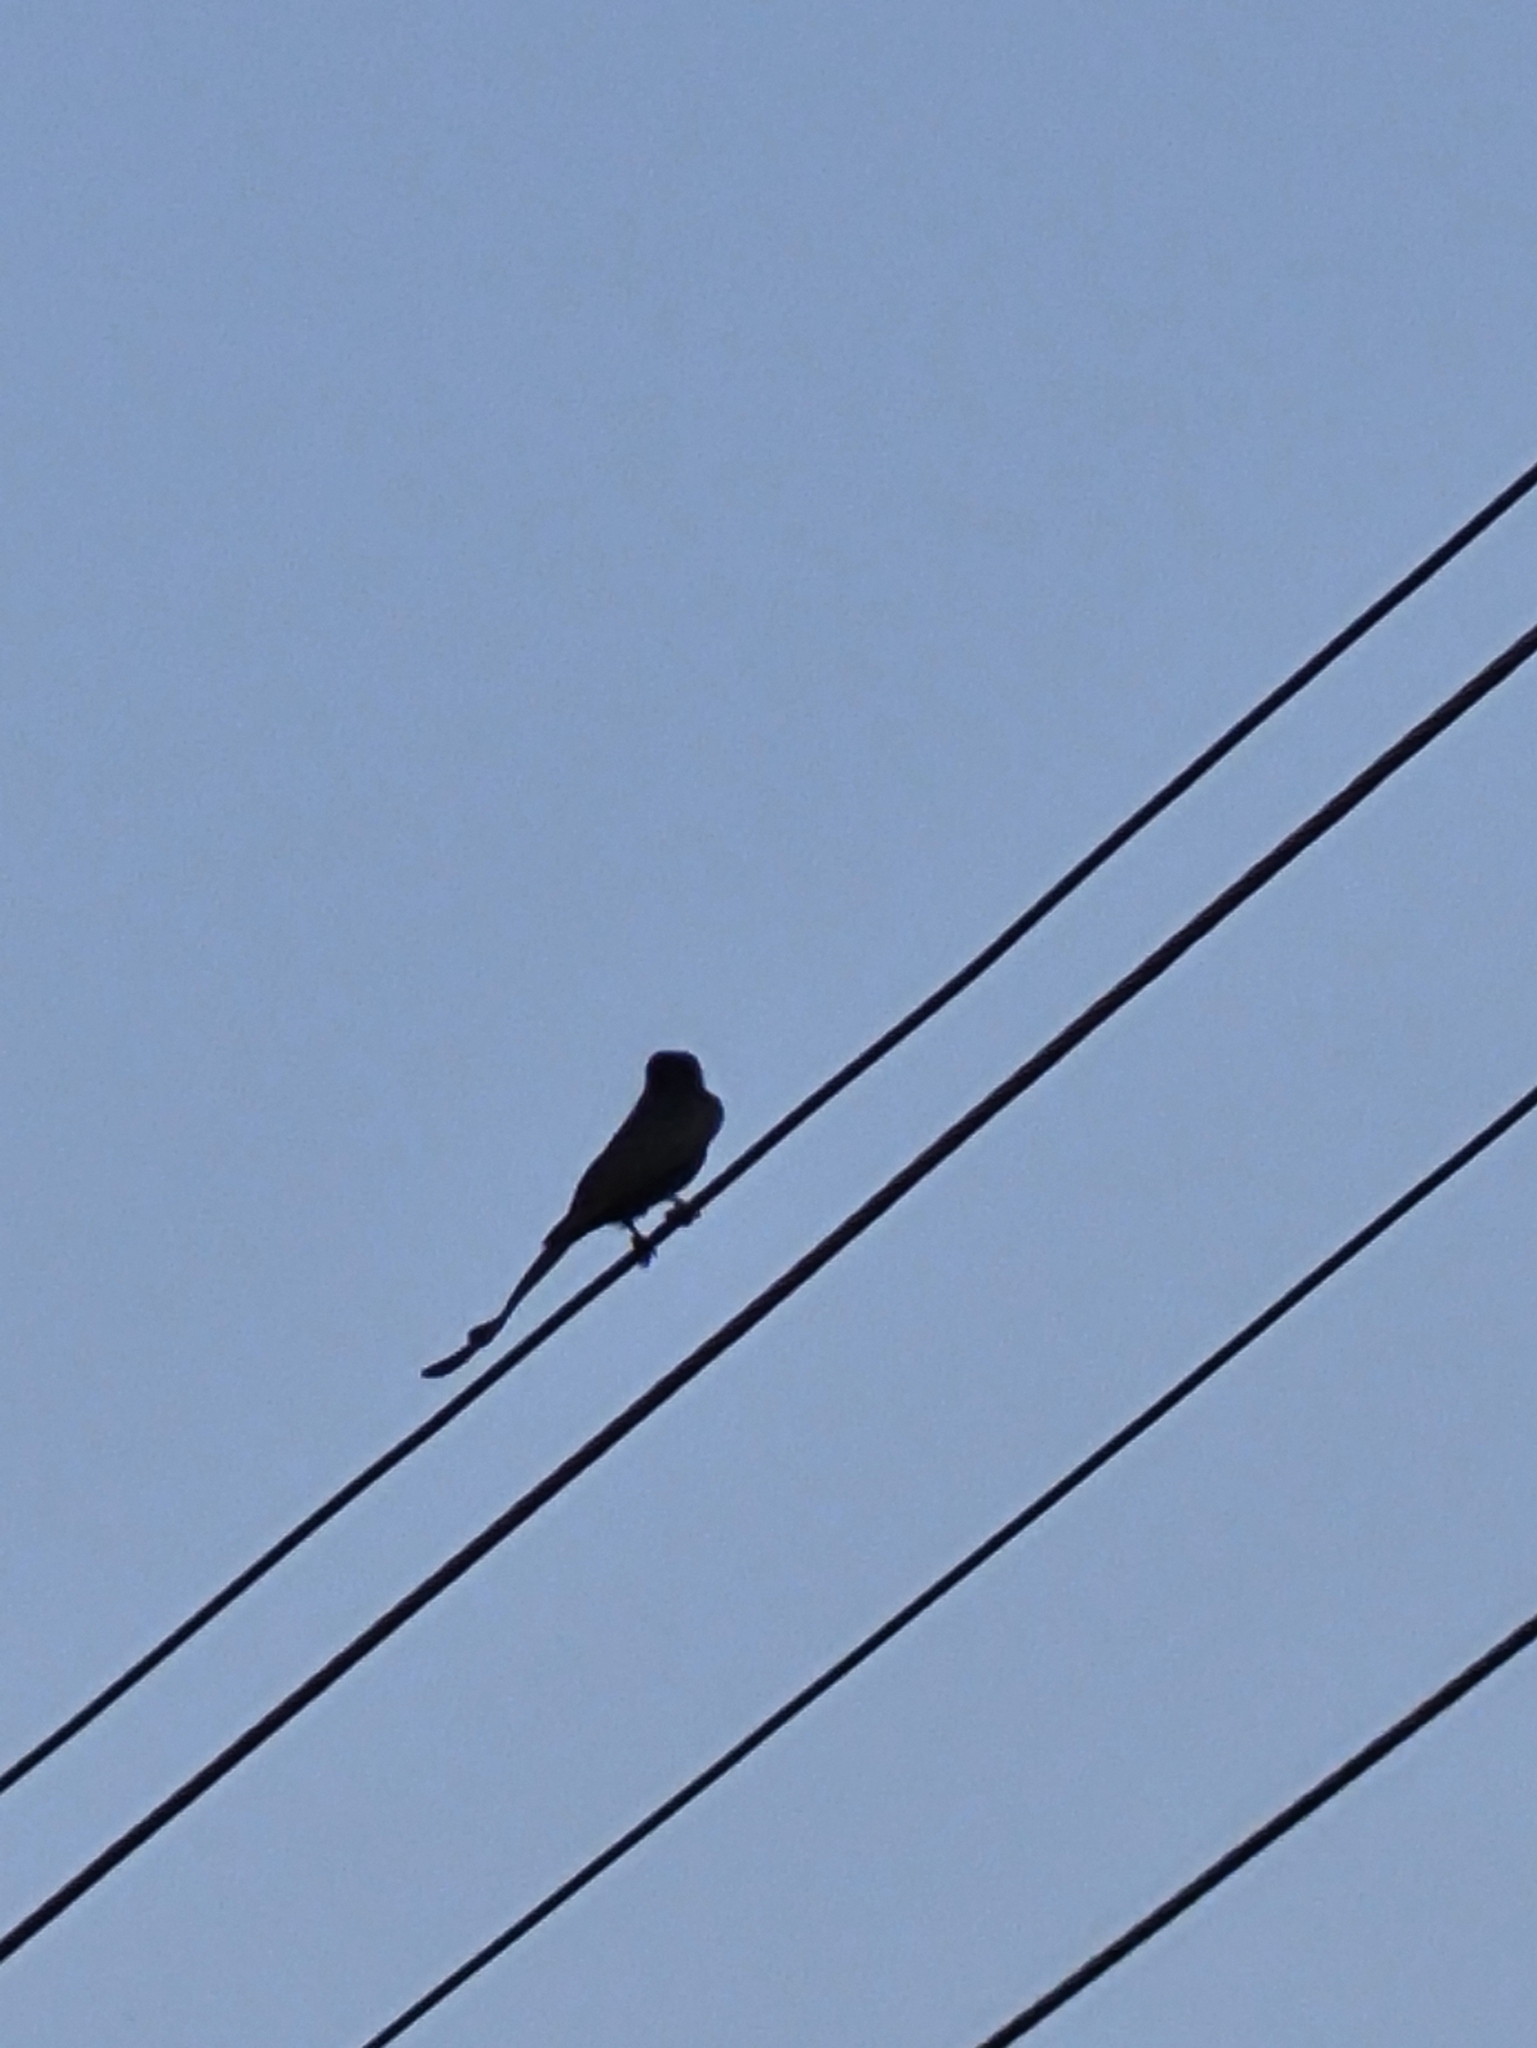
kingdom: Animalia
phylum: Chordata
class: Aves
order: Passeriformes
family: Dicruridae
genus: Dicrurus
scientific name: Dicrurus macrocercus
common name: Black drongo
